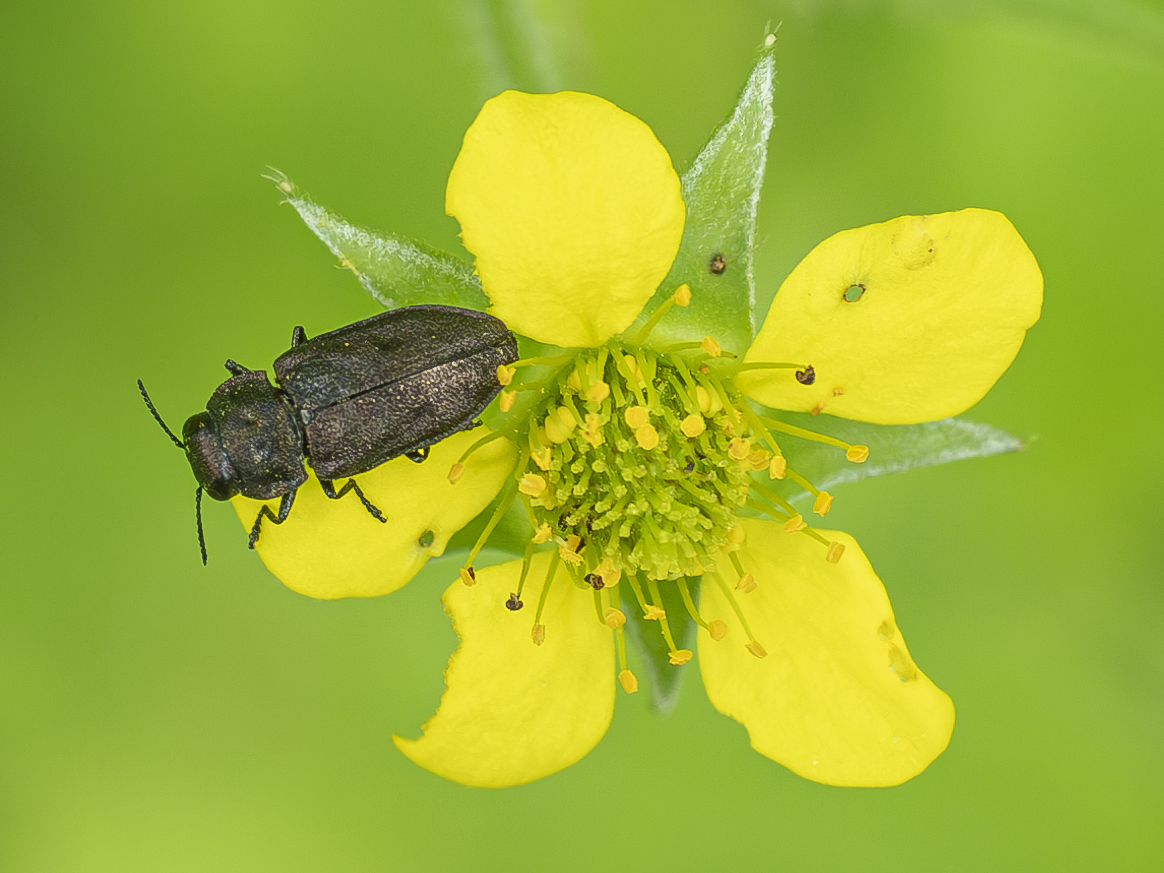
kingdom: Animalia
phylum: Arthropoda
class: Insecta
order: Coleoptera
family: Buprestidae
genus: Anthaxia
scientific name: Anthaxia quadripunctata
